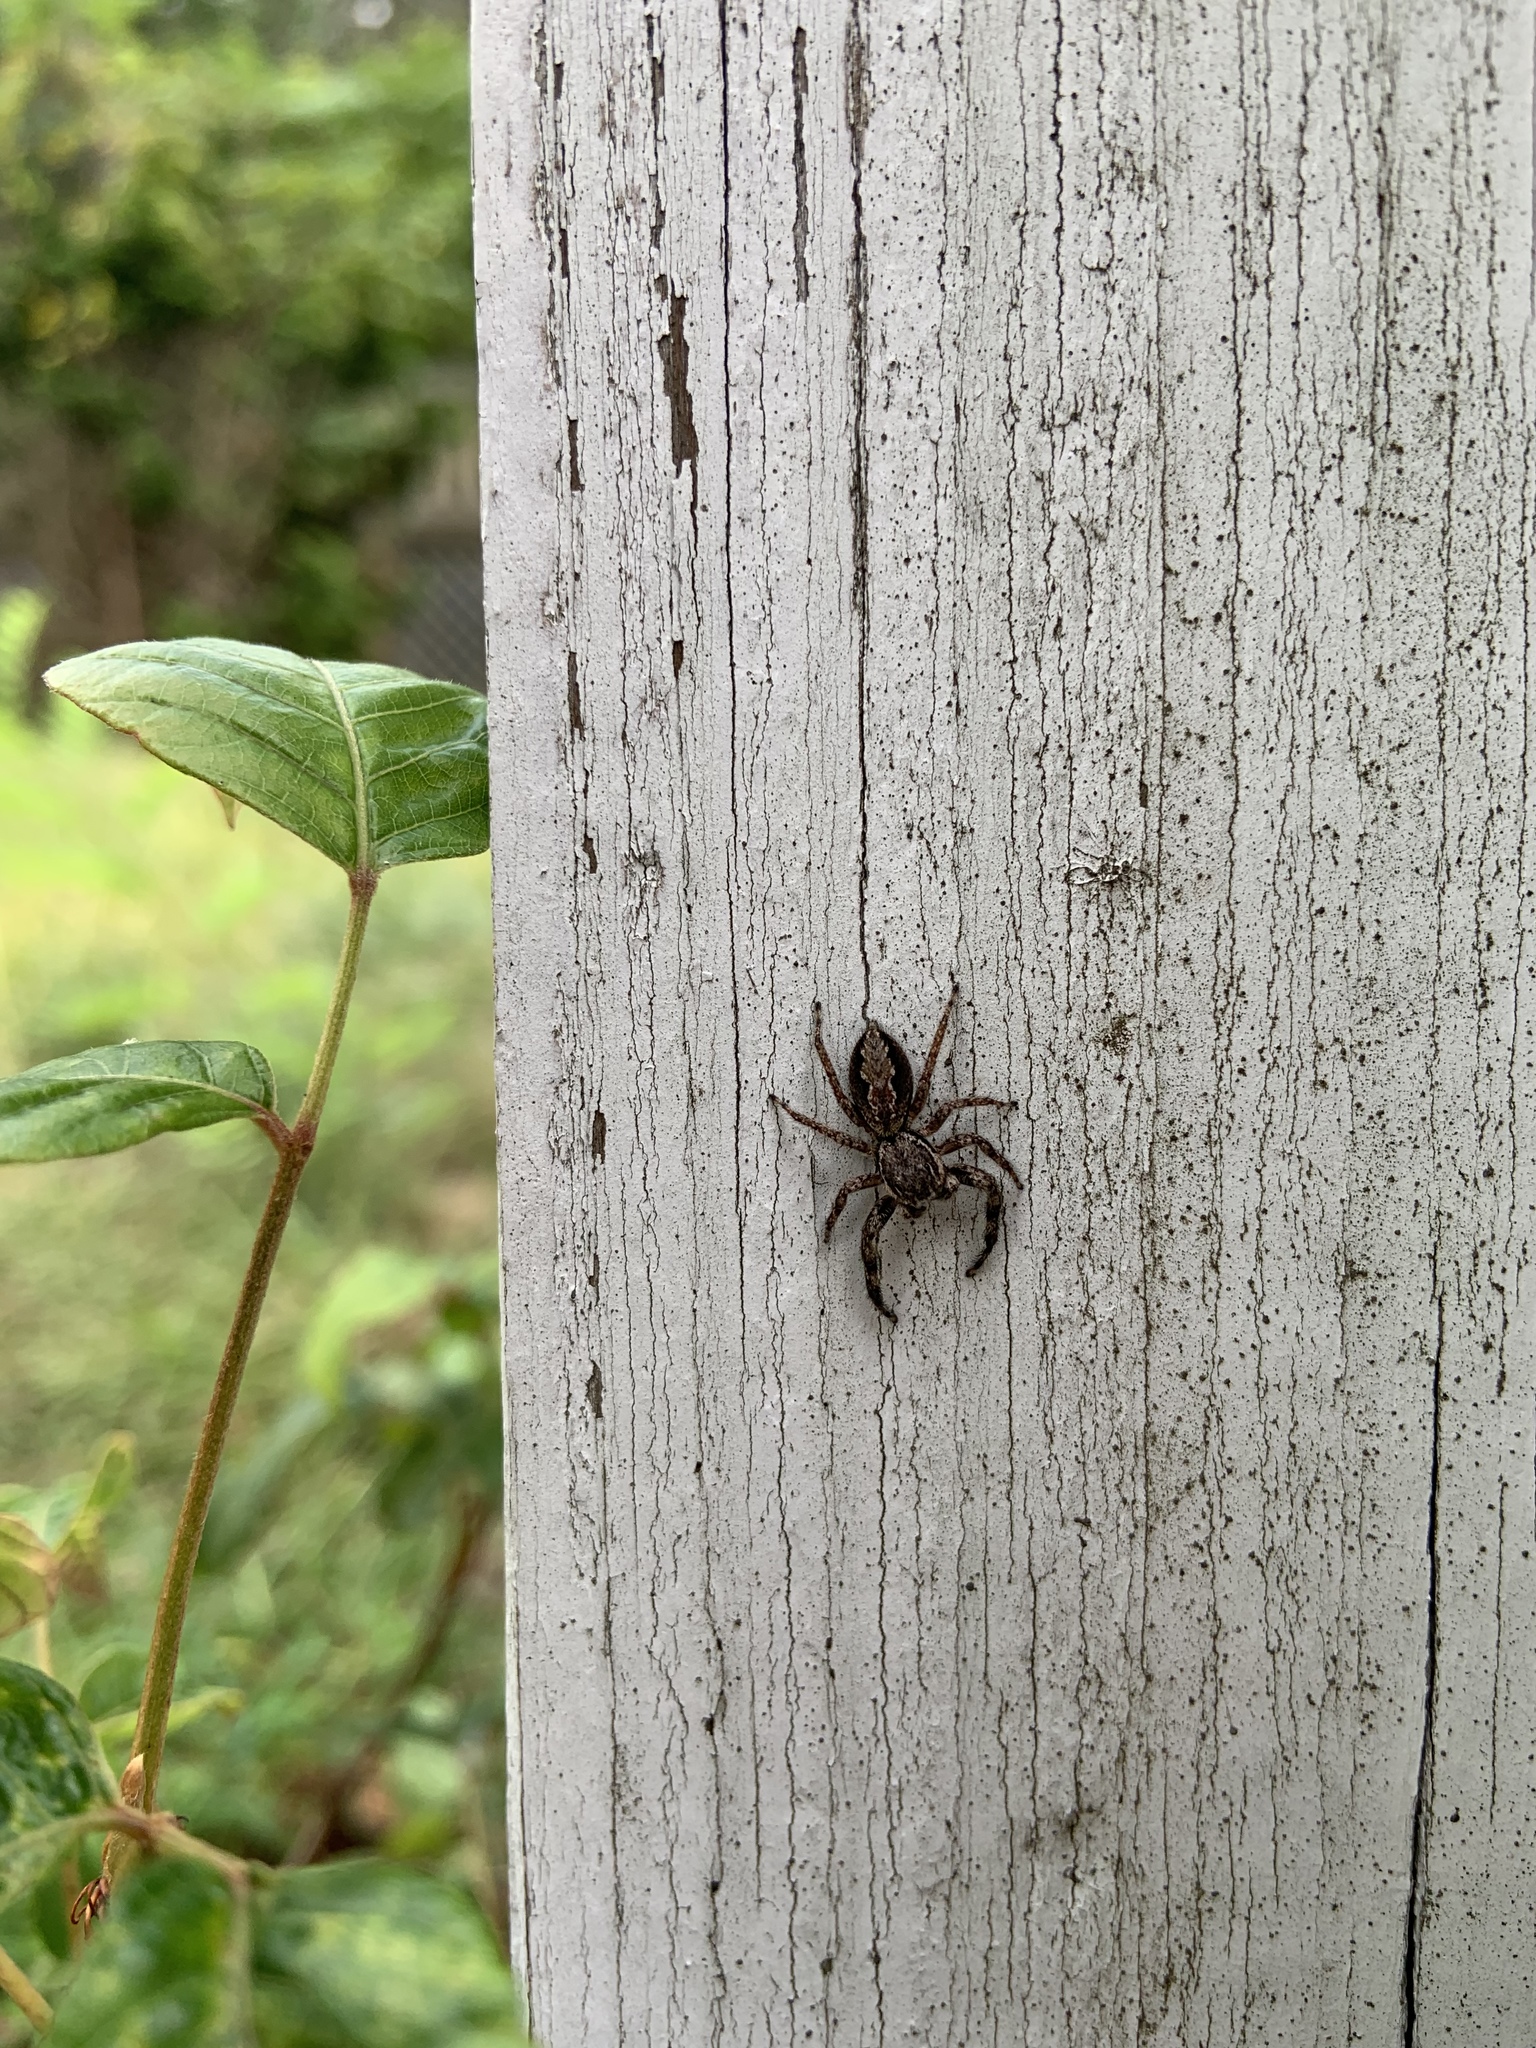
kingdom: Animalia
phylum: Arthropoda
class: Arachnida
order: Araneae
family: Salticidae
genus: Platycryptus
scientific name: Platycryptus undatus
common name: Tan jumping spider
